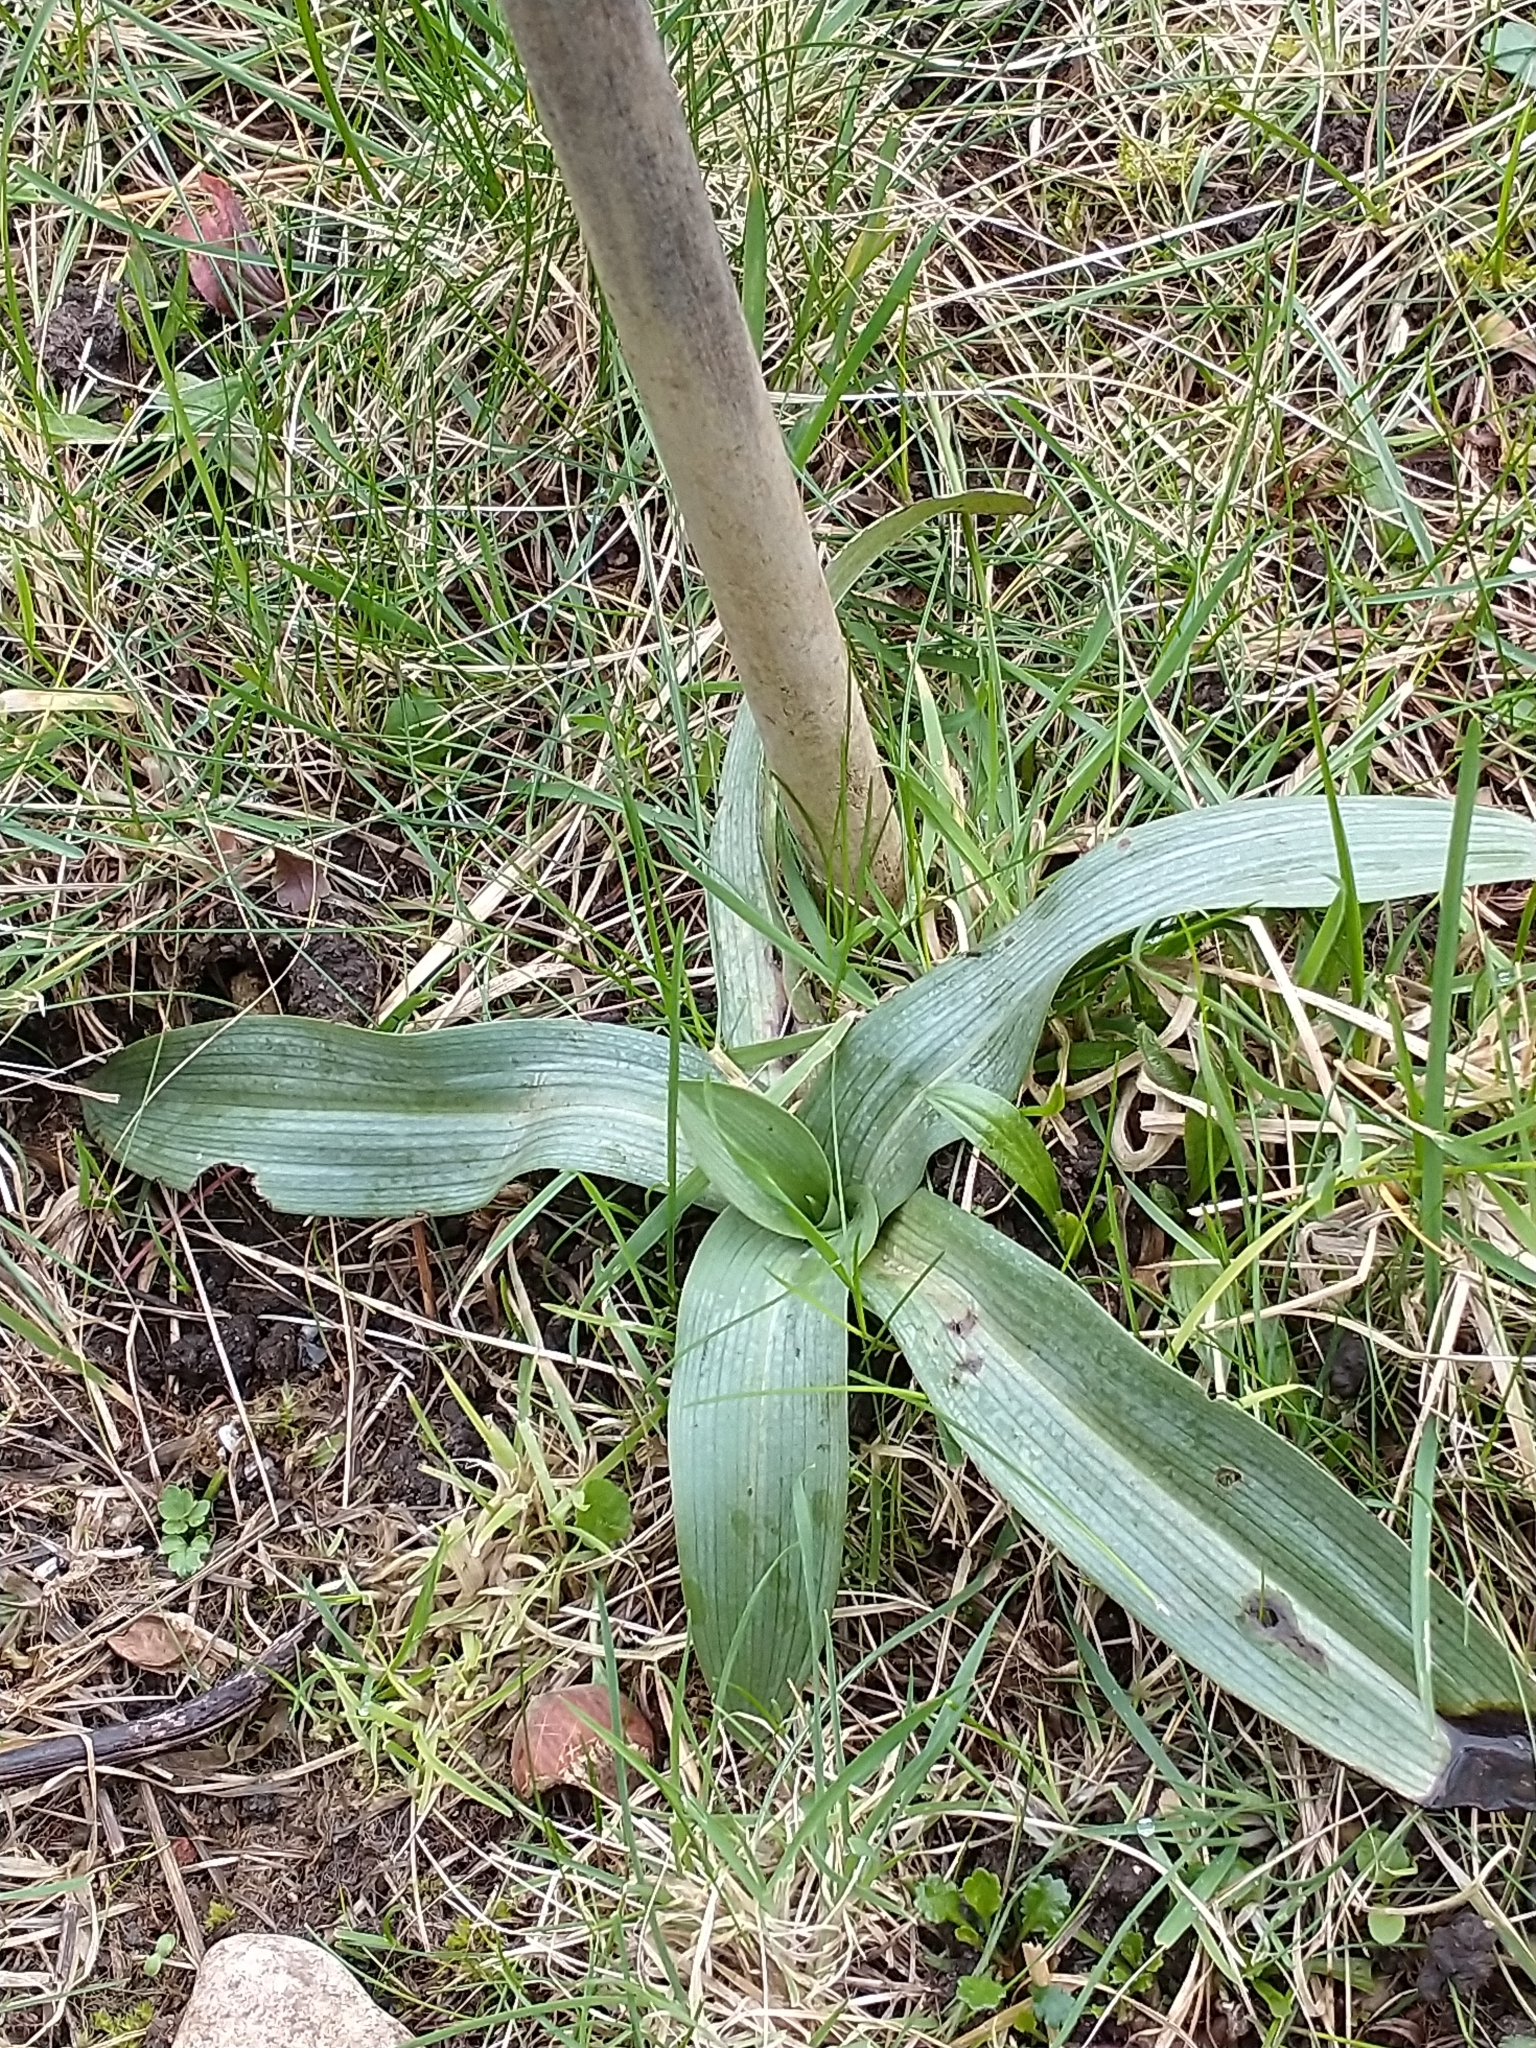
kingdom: Plantae
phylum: Tracheophyta
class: Liliopsida
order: Asparagales
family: Orchidaceae
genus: Ophrys
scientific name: Ophrys apifera
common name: Bee orchid
